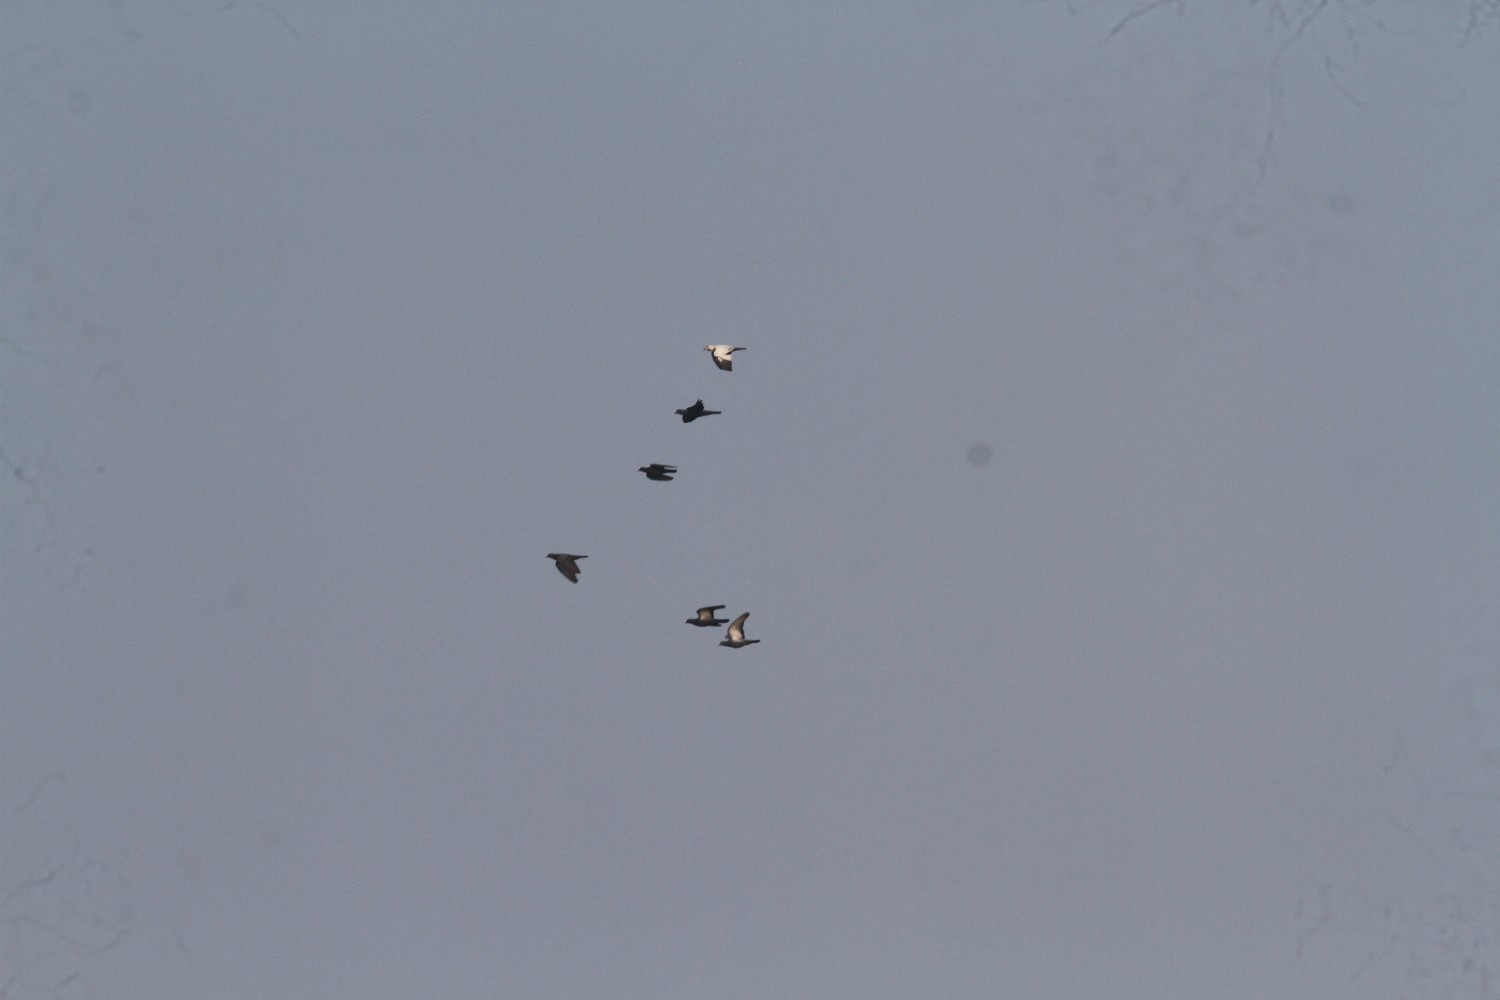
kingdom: Animalia
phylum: Chordata
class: Aves
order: Columbiformes
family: Columbidae
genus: Columba
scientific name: Columba livia
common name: Rock pigeon
